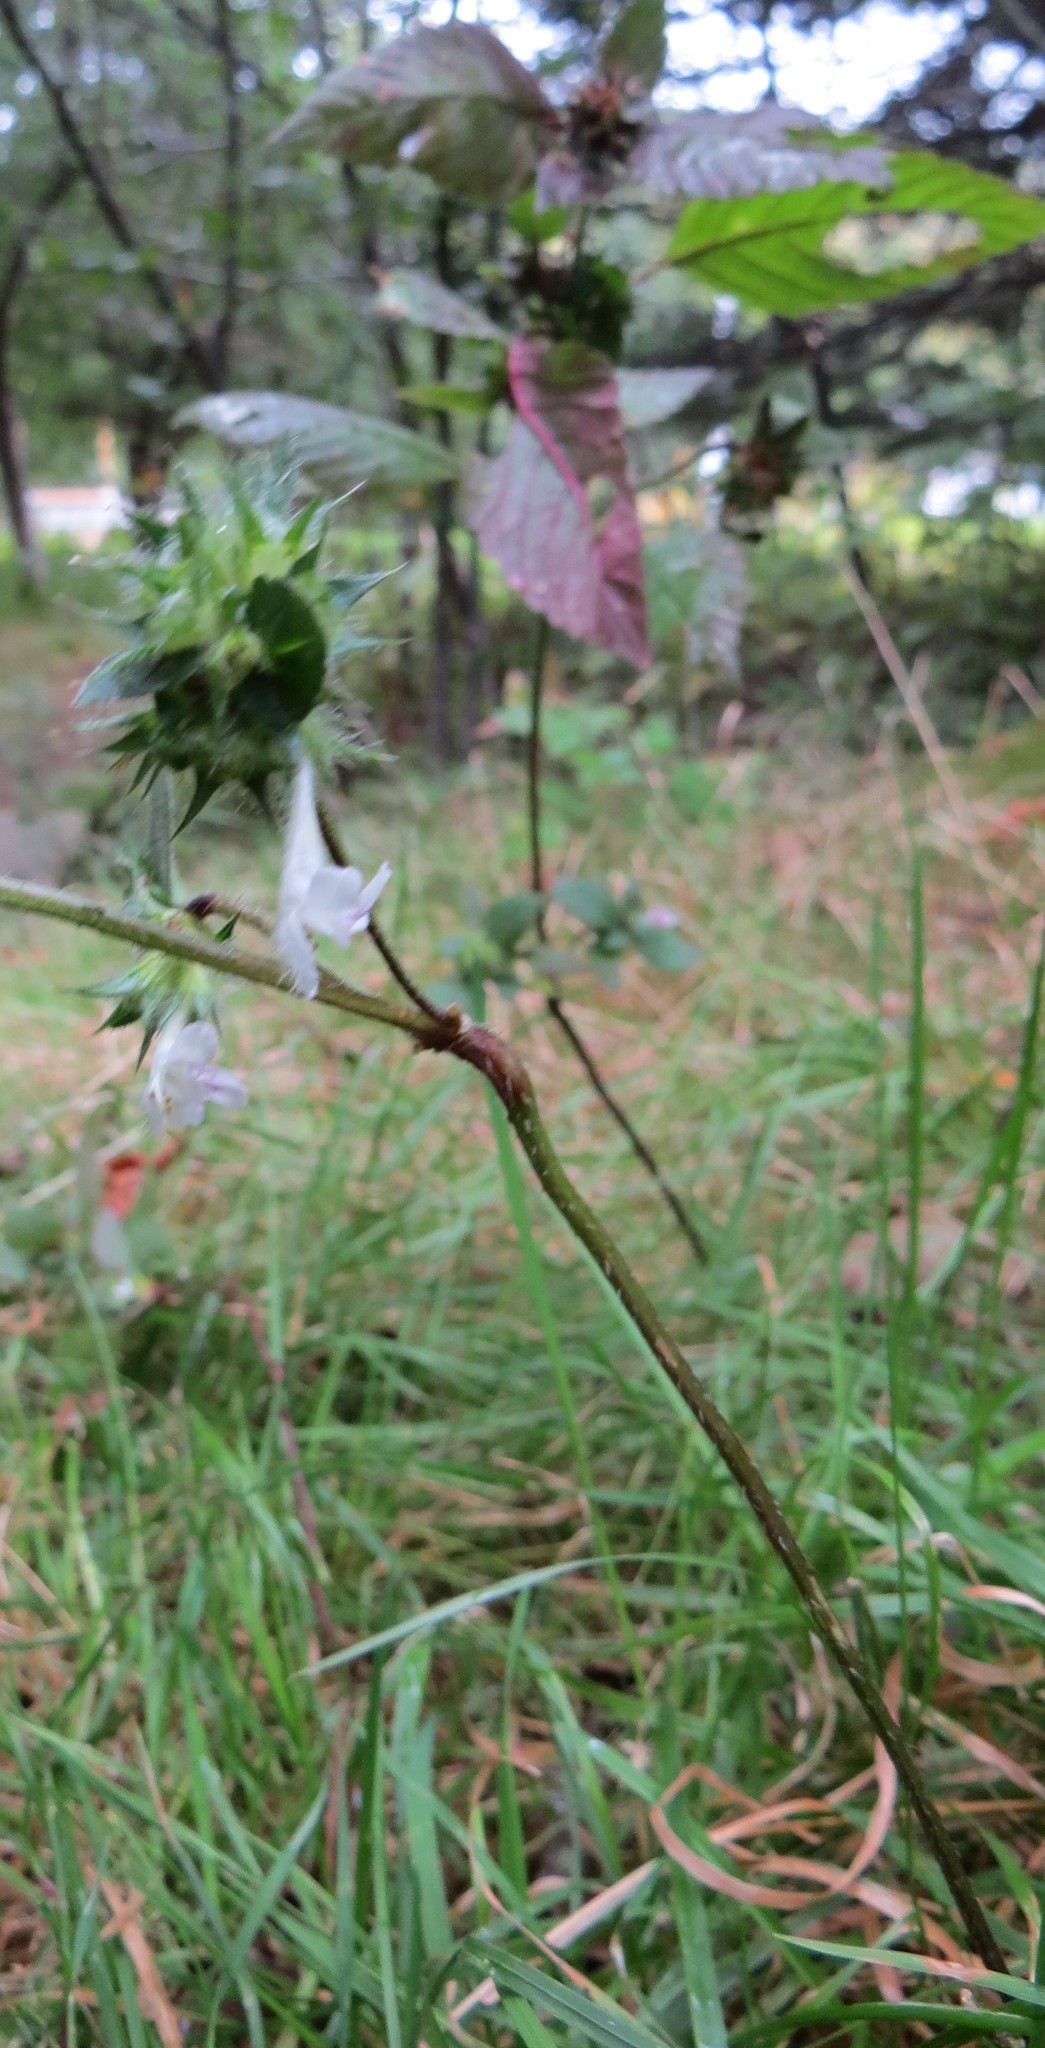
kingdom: Plantae
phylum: Tracheophyta
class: Magnoliopsida
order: Lamiales
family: Lamiaceae
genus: Galeopsis
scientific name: Galeopsis tetrahit
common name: Common hemp-nettle
